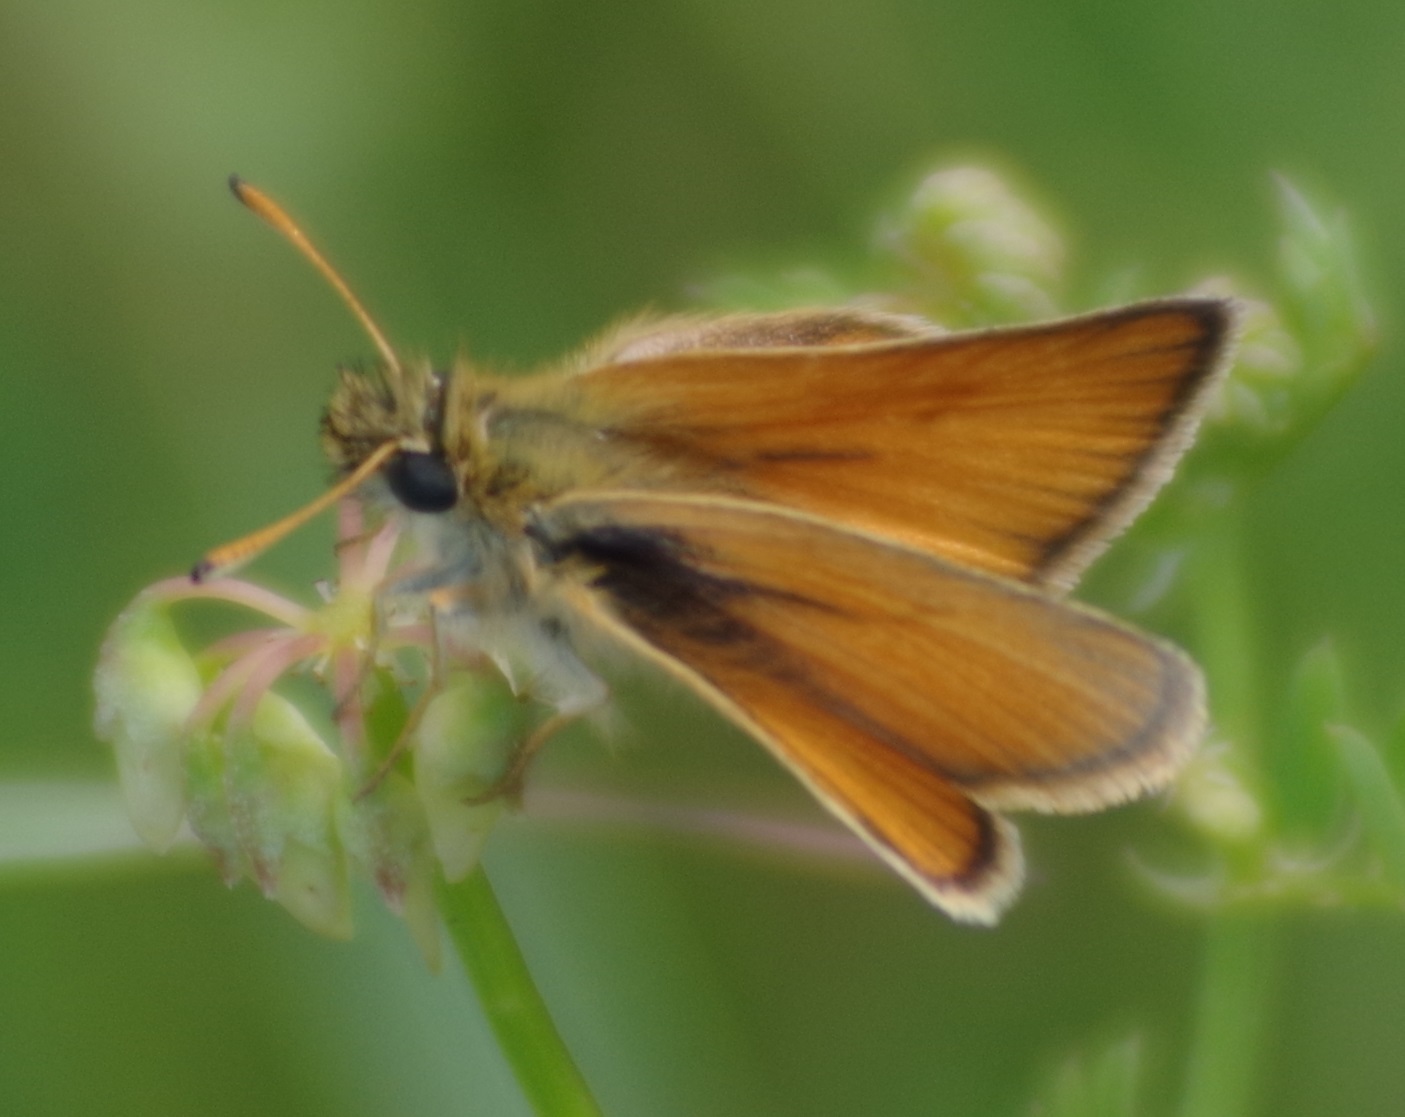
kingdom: Animalia
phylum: Arthropoda
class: Insecta
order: Lepidoptera
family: Hesperiidae
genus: Thymelicus
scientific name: Thymelicus lineola
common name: Essex skipper
